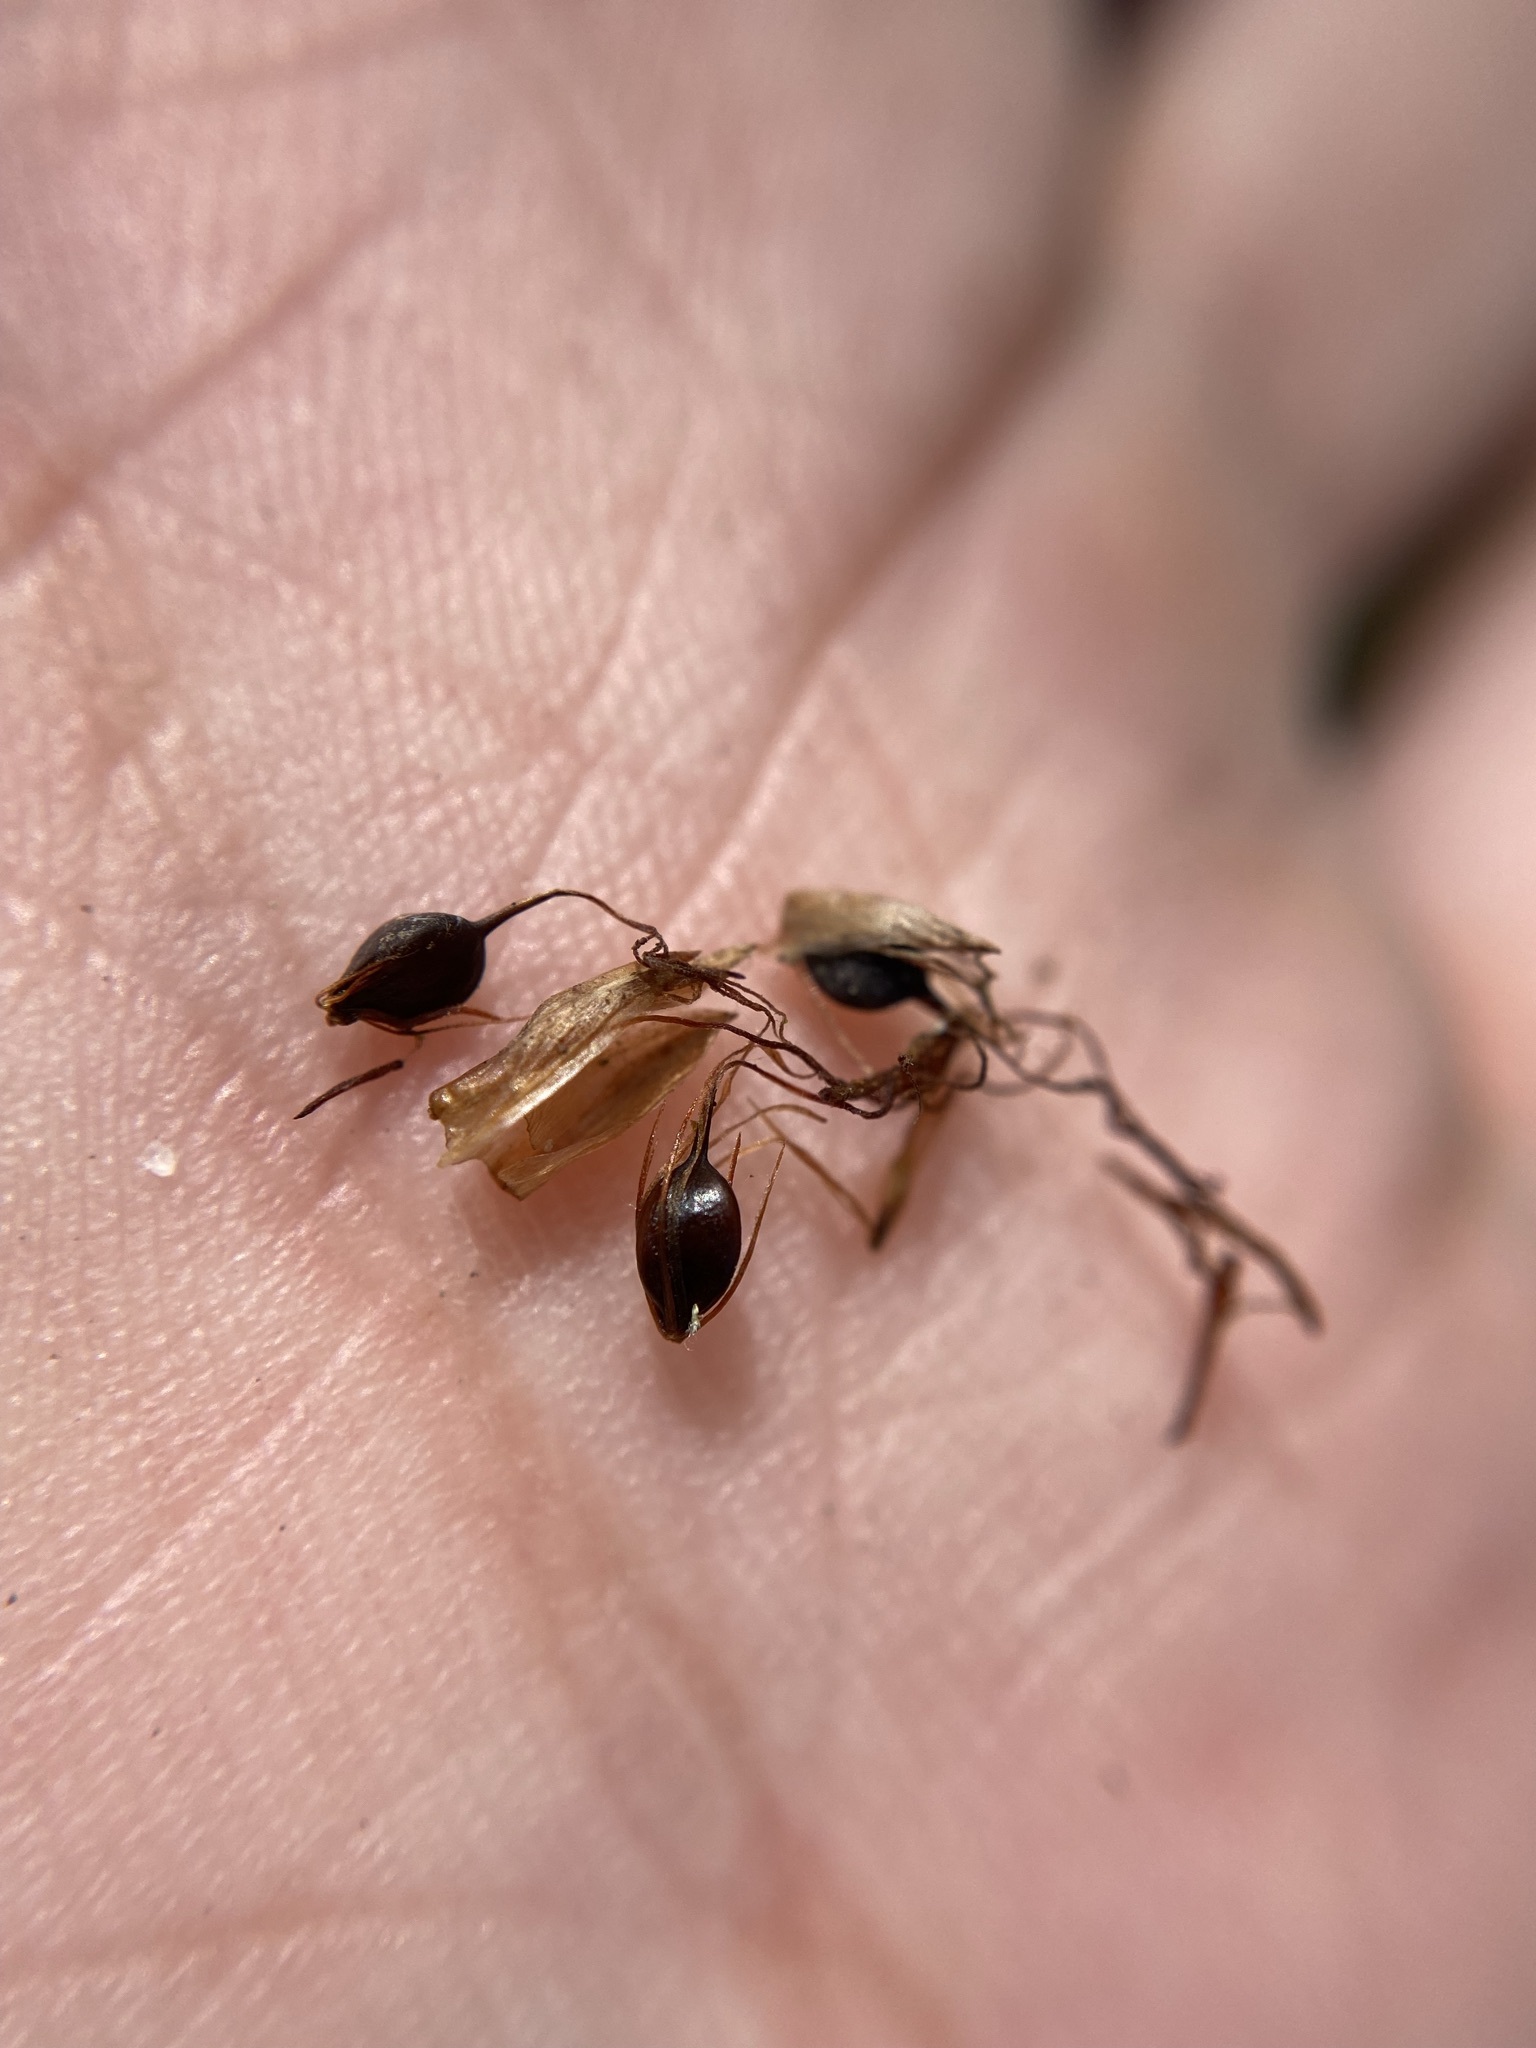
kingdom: Plantae
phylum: Tracheophyta
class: Liliopsida
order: Poales
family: Cyperaceae
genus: Schoenoplectus
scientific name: Schoenoplectus etuberculatus
